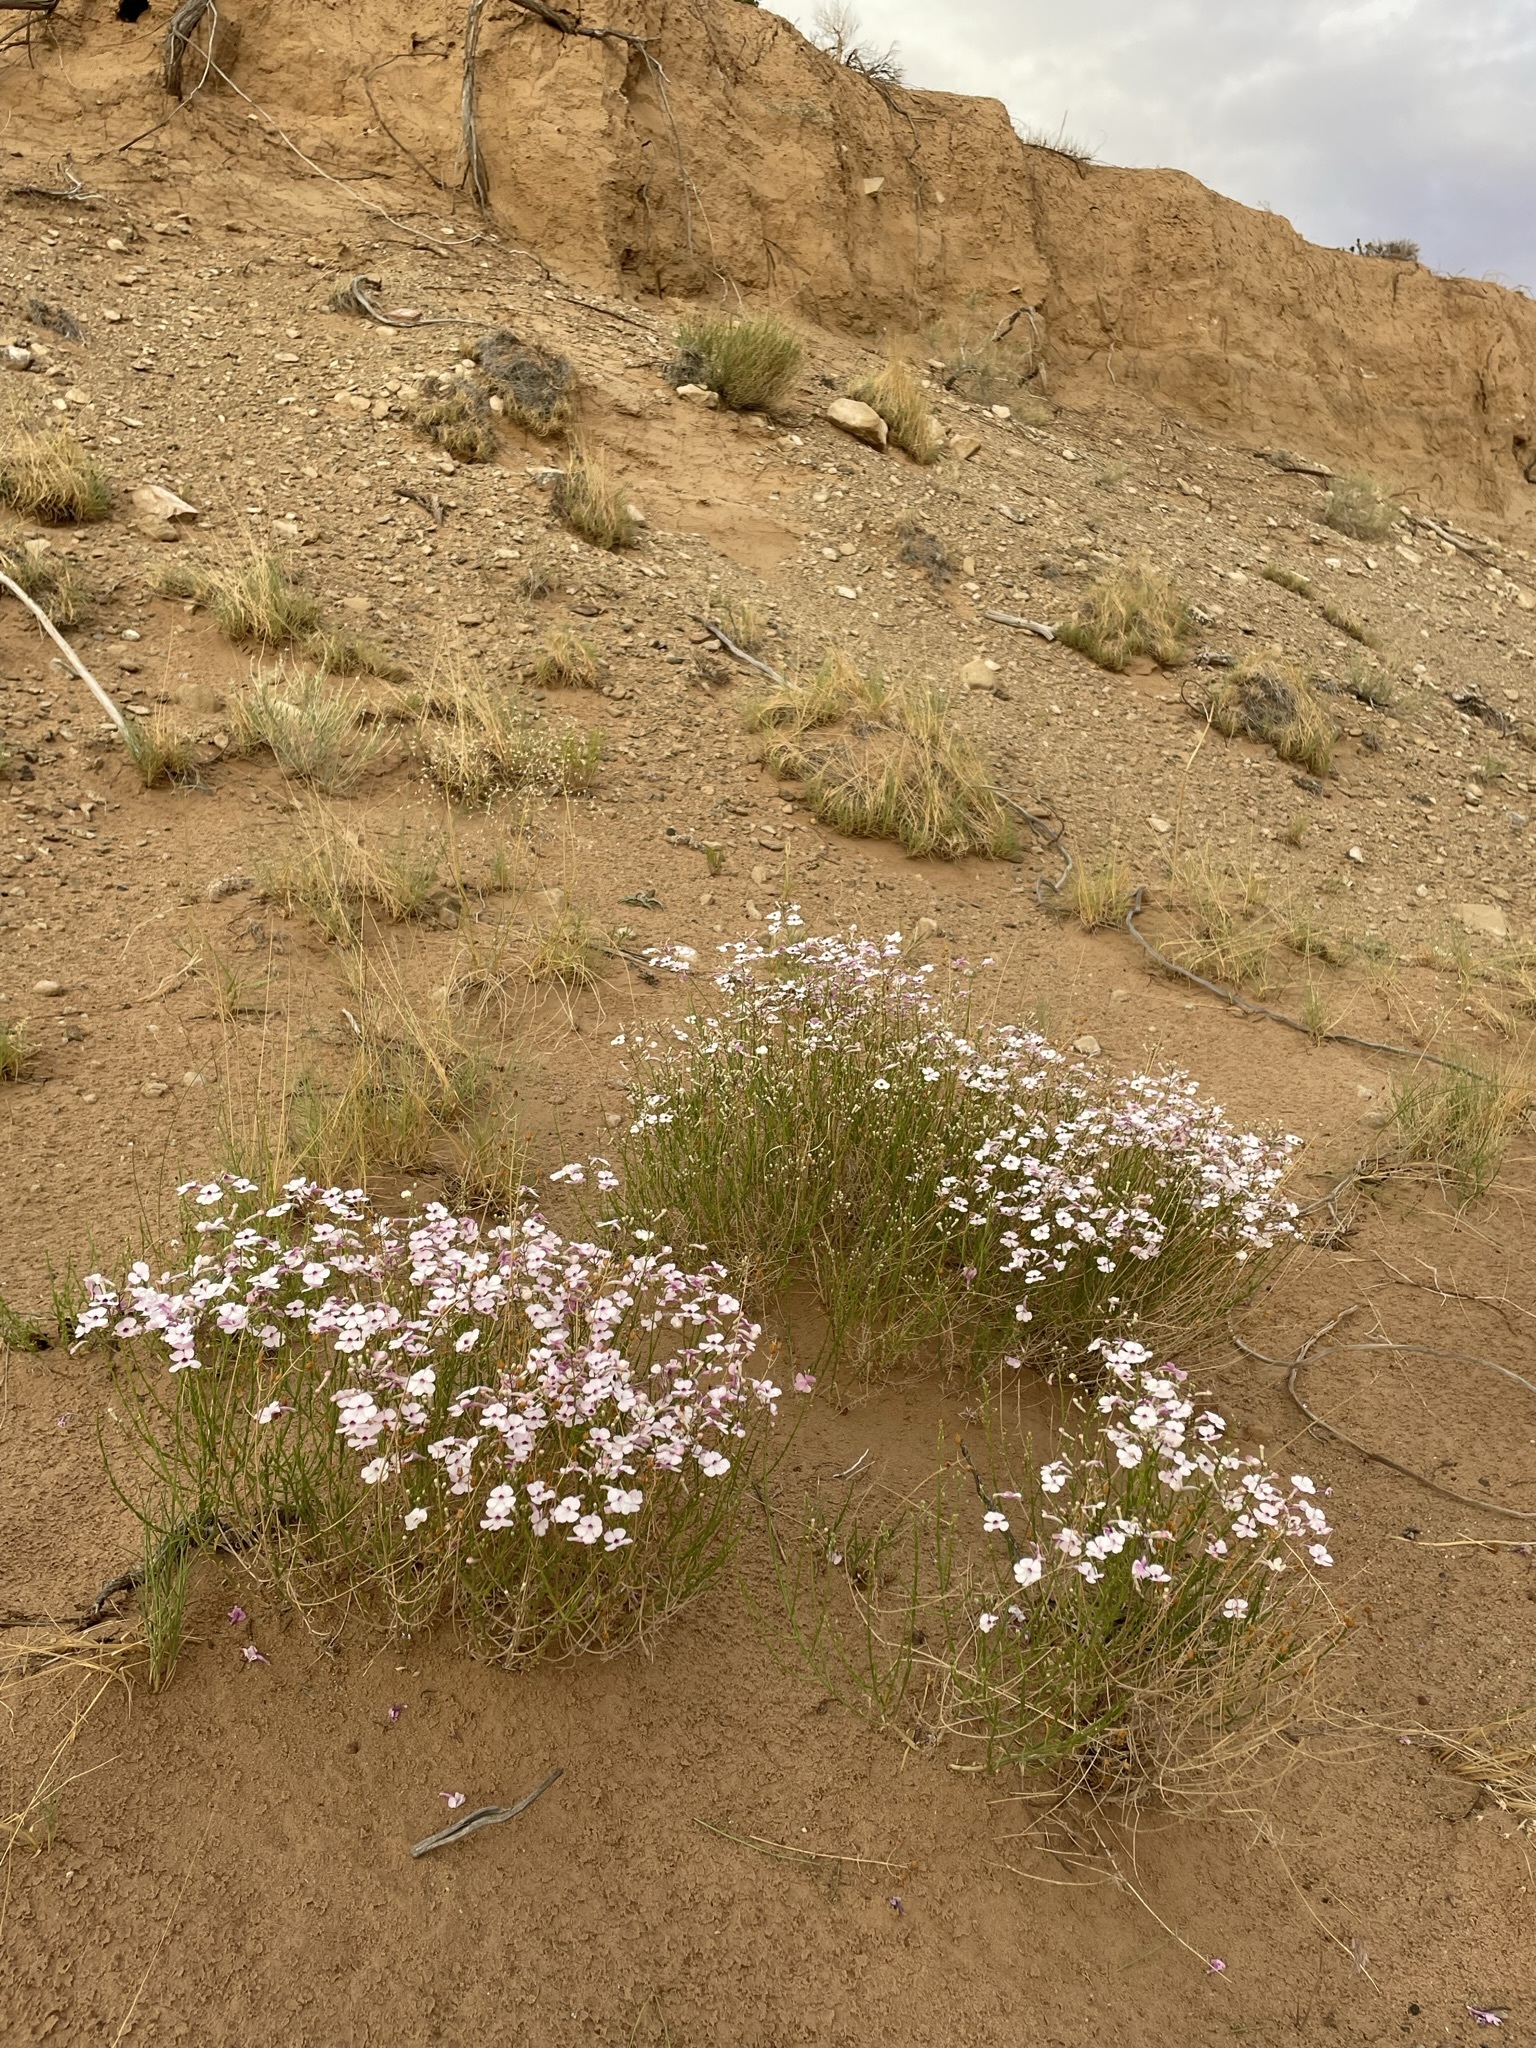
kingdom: Plantae
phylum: Tracheophyta
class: Magnoliopsida
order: Lamiales
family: Plantaginaceae
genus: Penstemon
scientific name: Penstemon ambiguus
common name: Bush penstemon
